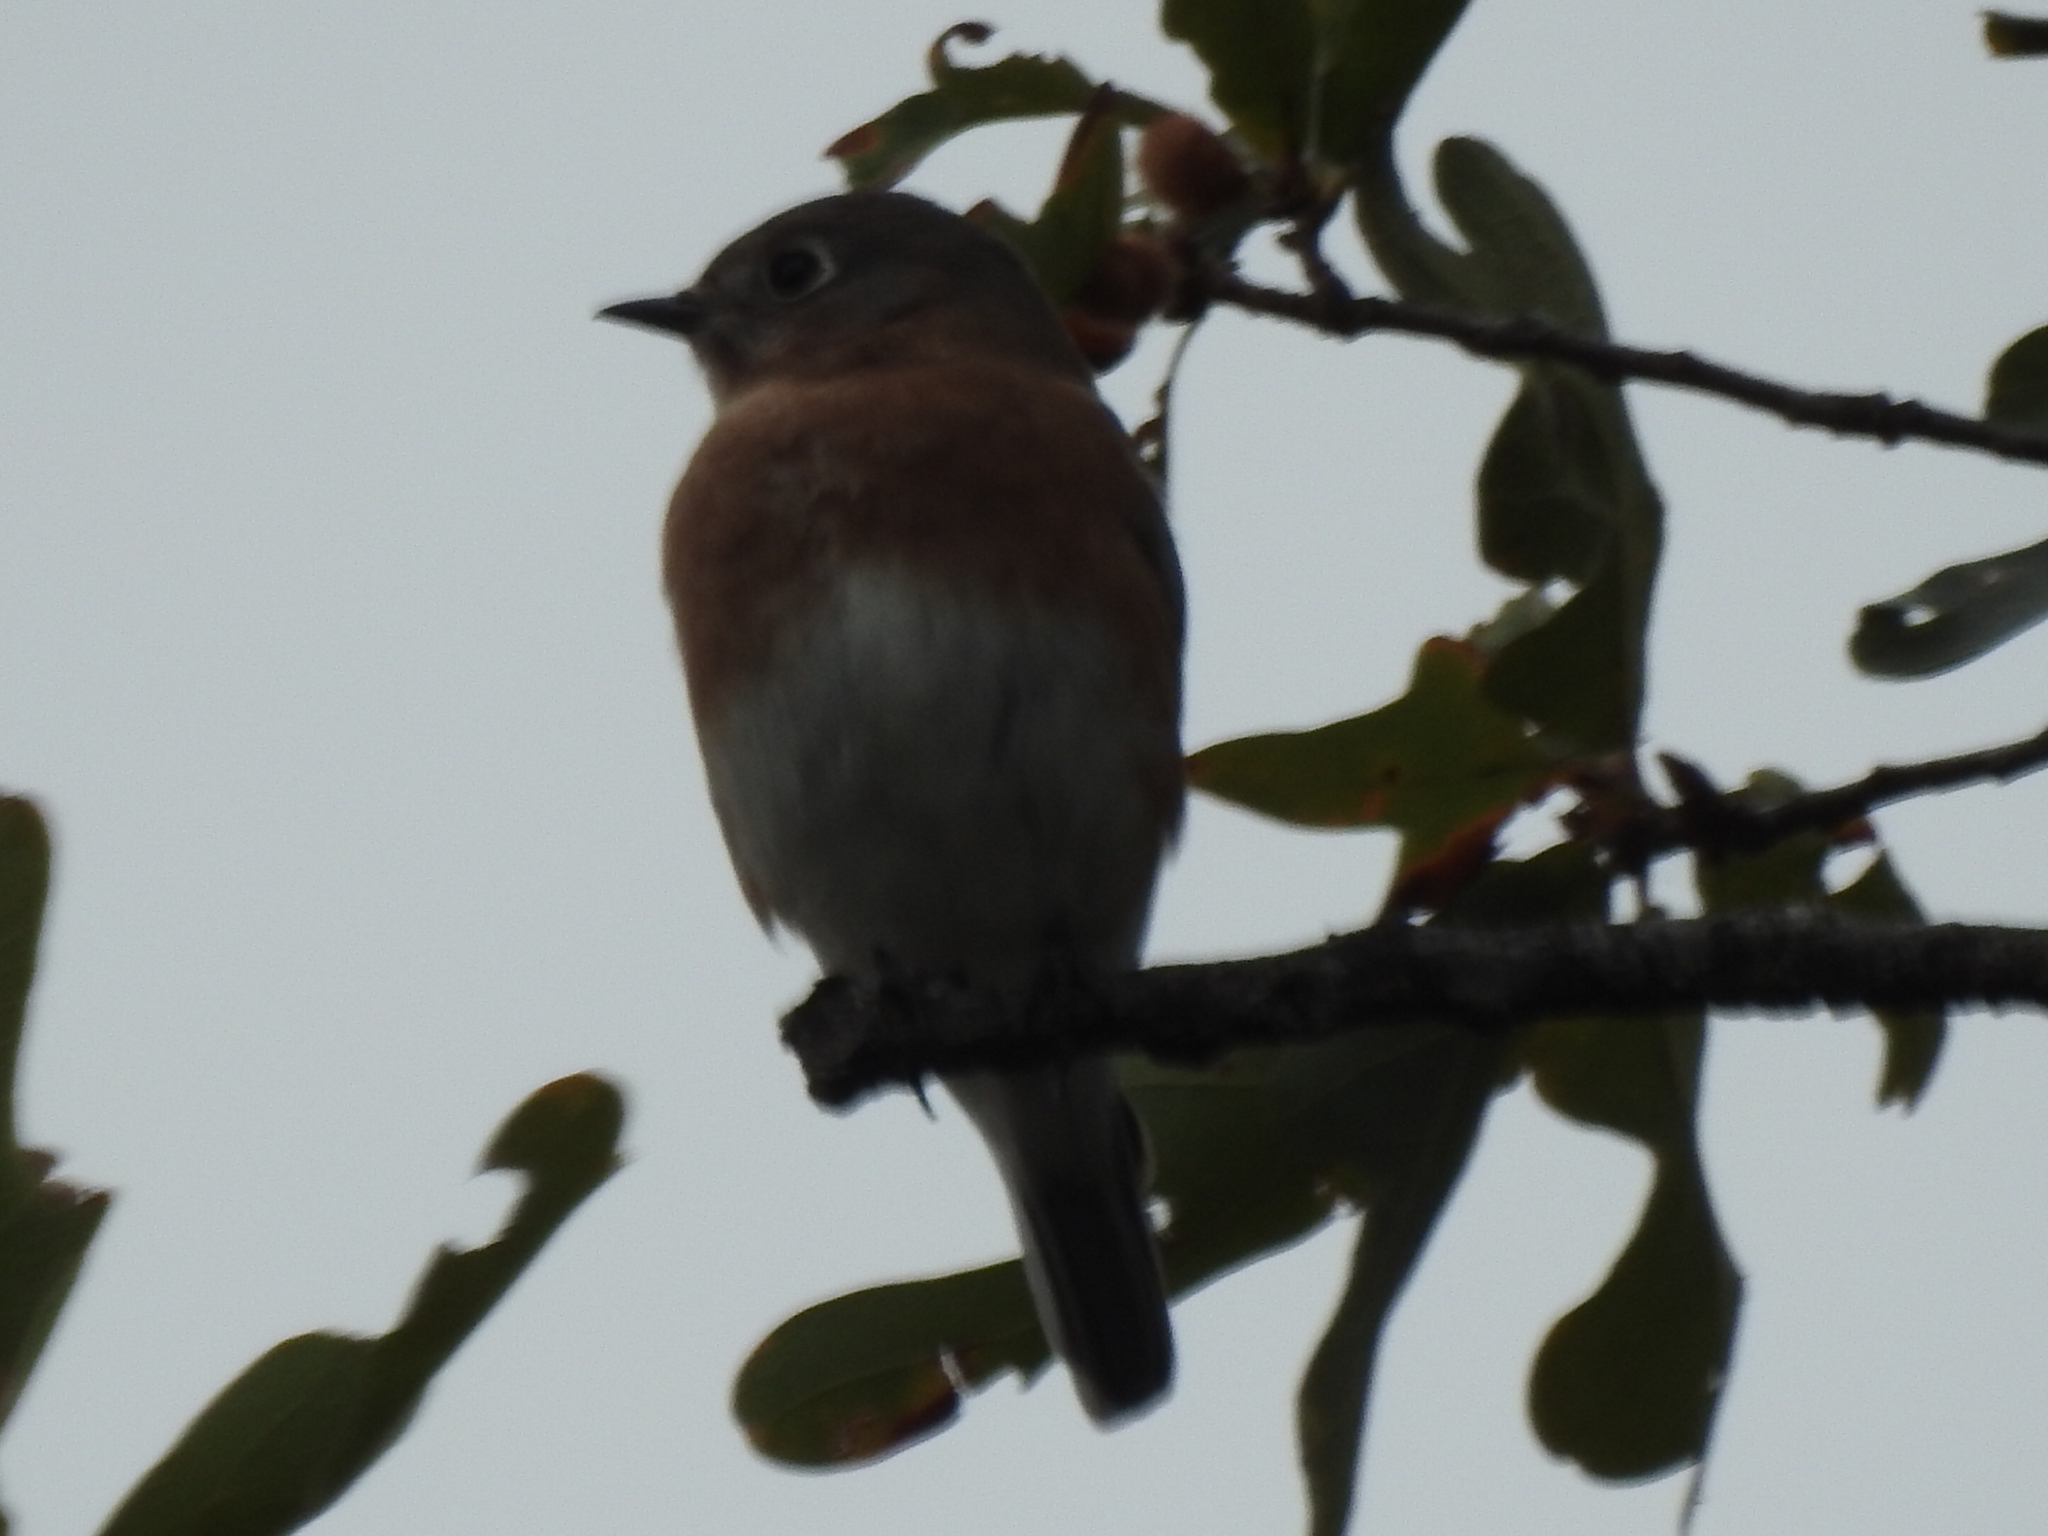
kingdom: Animalia
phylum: Chordata
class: Aves
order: Passeriformes
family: Turdidae
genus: Sialia
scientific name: Sialia sialis
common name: Eastern bluebird
